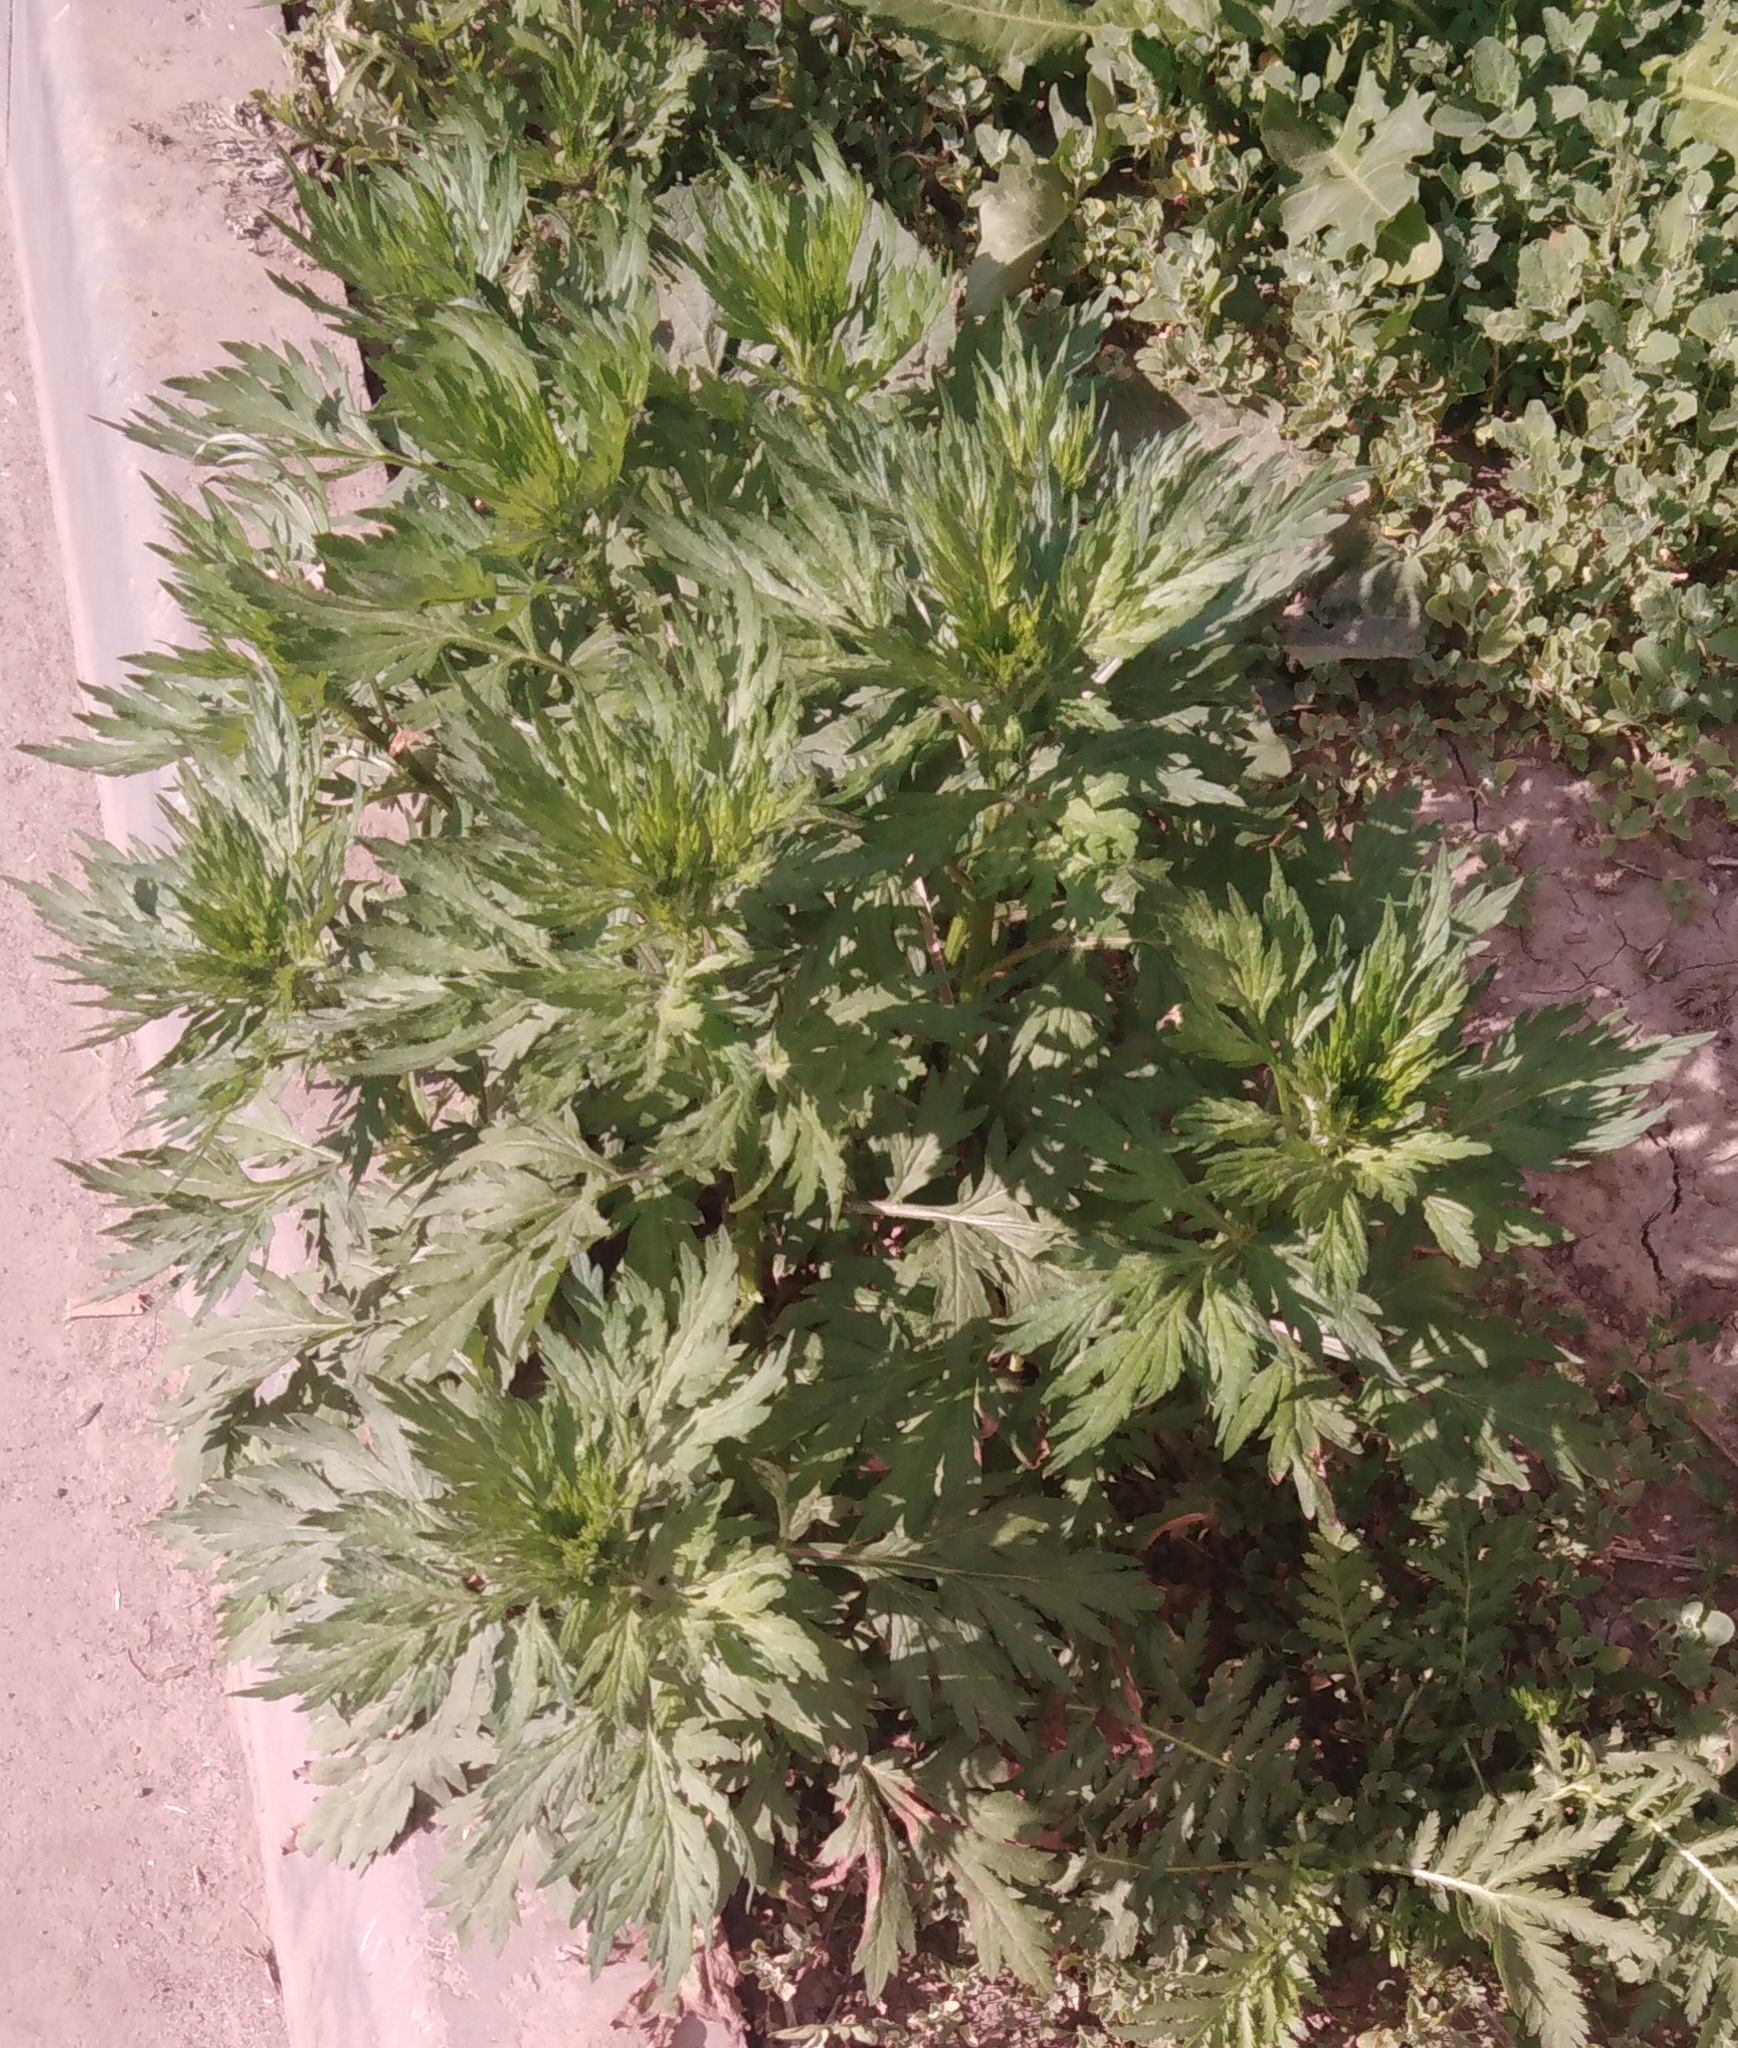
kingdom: Plantae
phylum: Tracheophyta
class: Magnoliopsida
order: Asterales
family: Asteraceae
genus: Artemisia
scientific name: Artemisia vulgaris
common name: Mugwort
